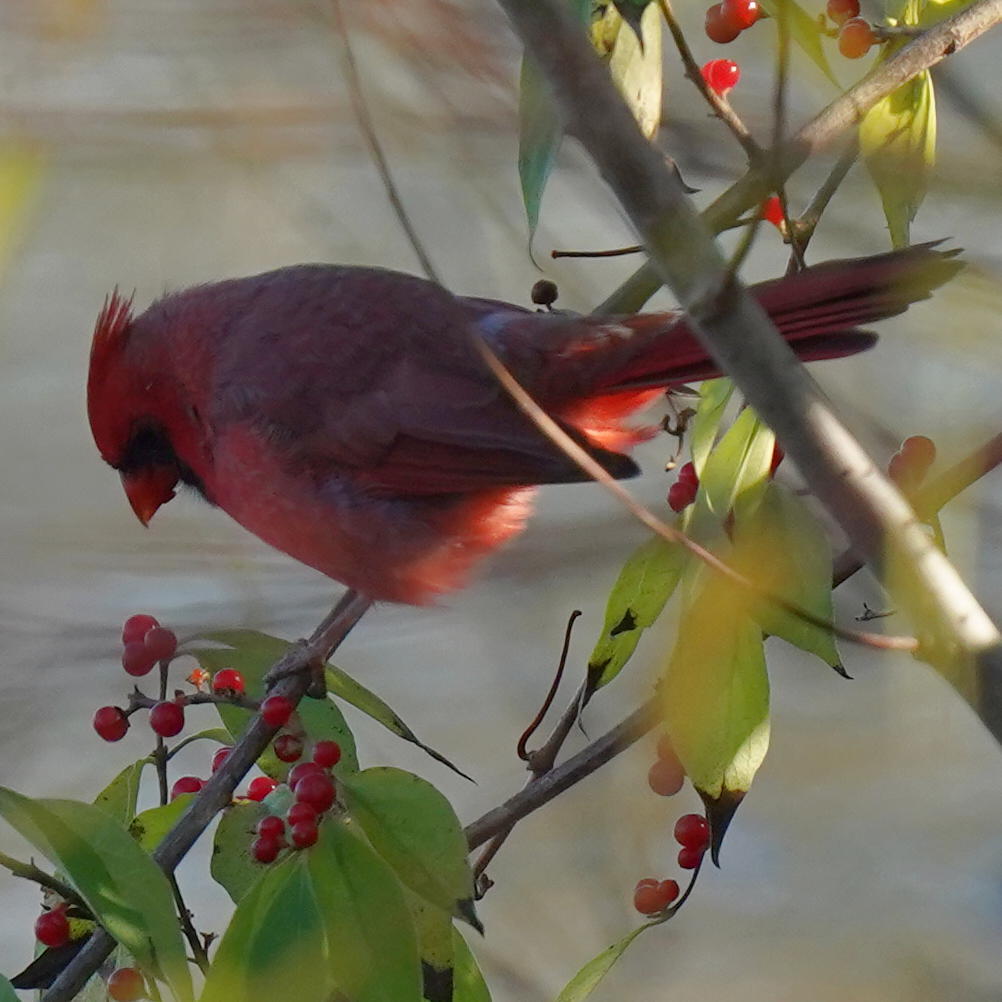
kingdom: Animalia
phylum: Chordata
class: Aves
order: Passeriformes
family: Cardinalidae
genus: Cardinalis
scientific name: Cardinalis cardinalis
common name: Northern cardinal
